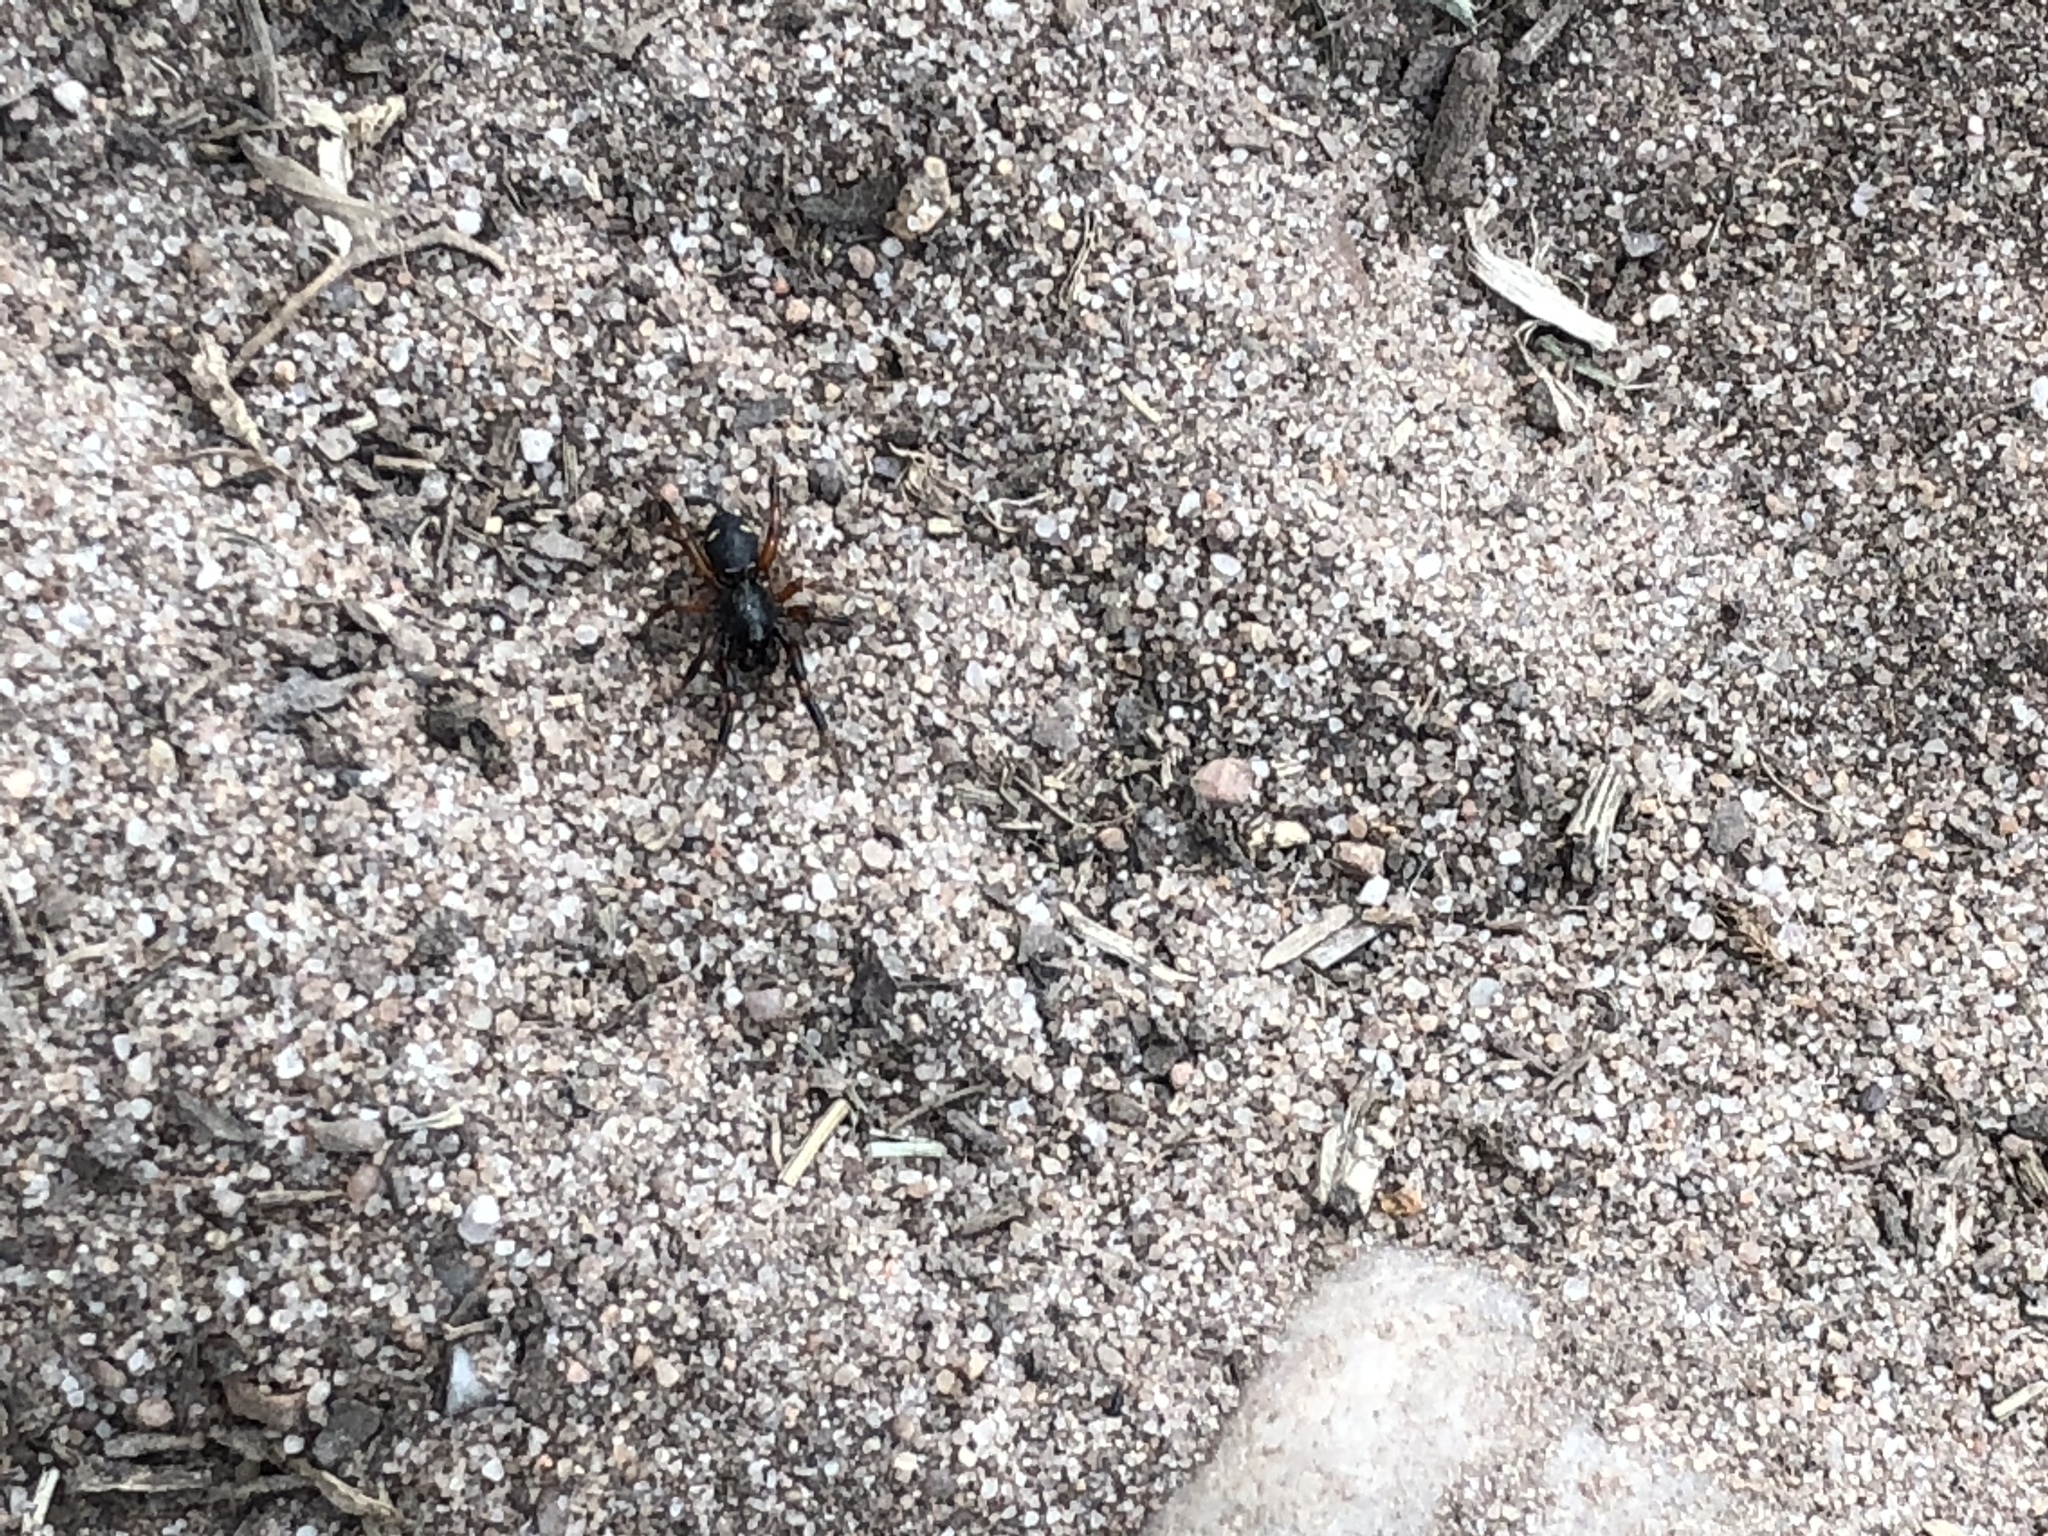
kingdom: Animalia
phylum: Arthropoda
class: Arachnida
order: Araneae
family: Theridiidae
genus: Asagena
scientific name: Asagena phalerata
